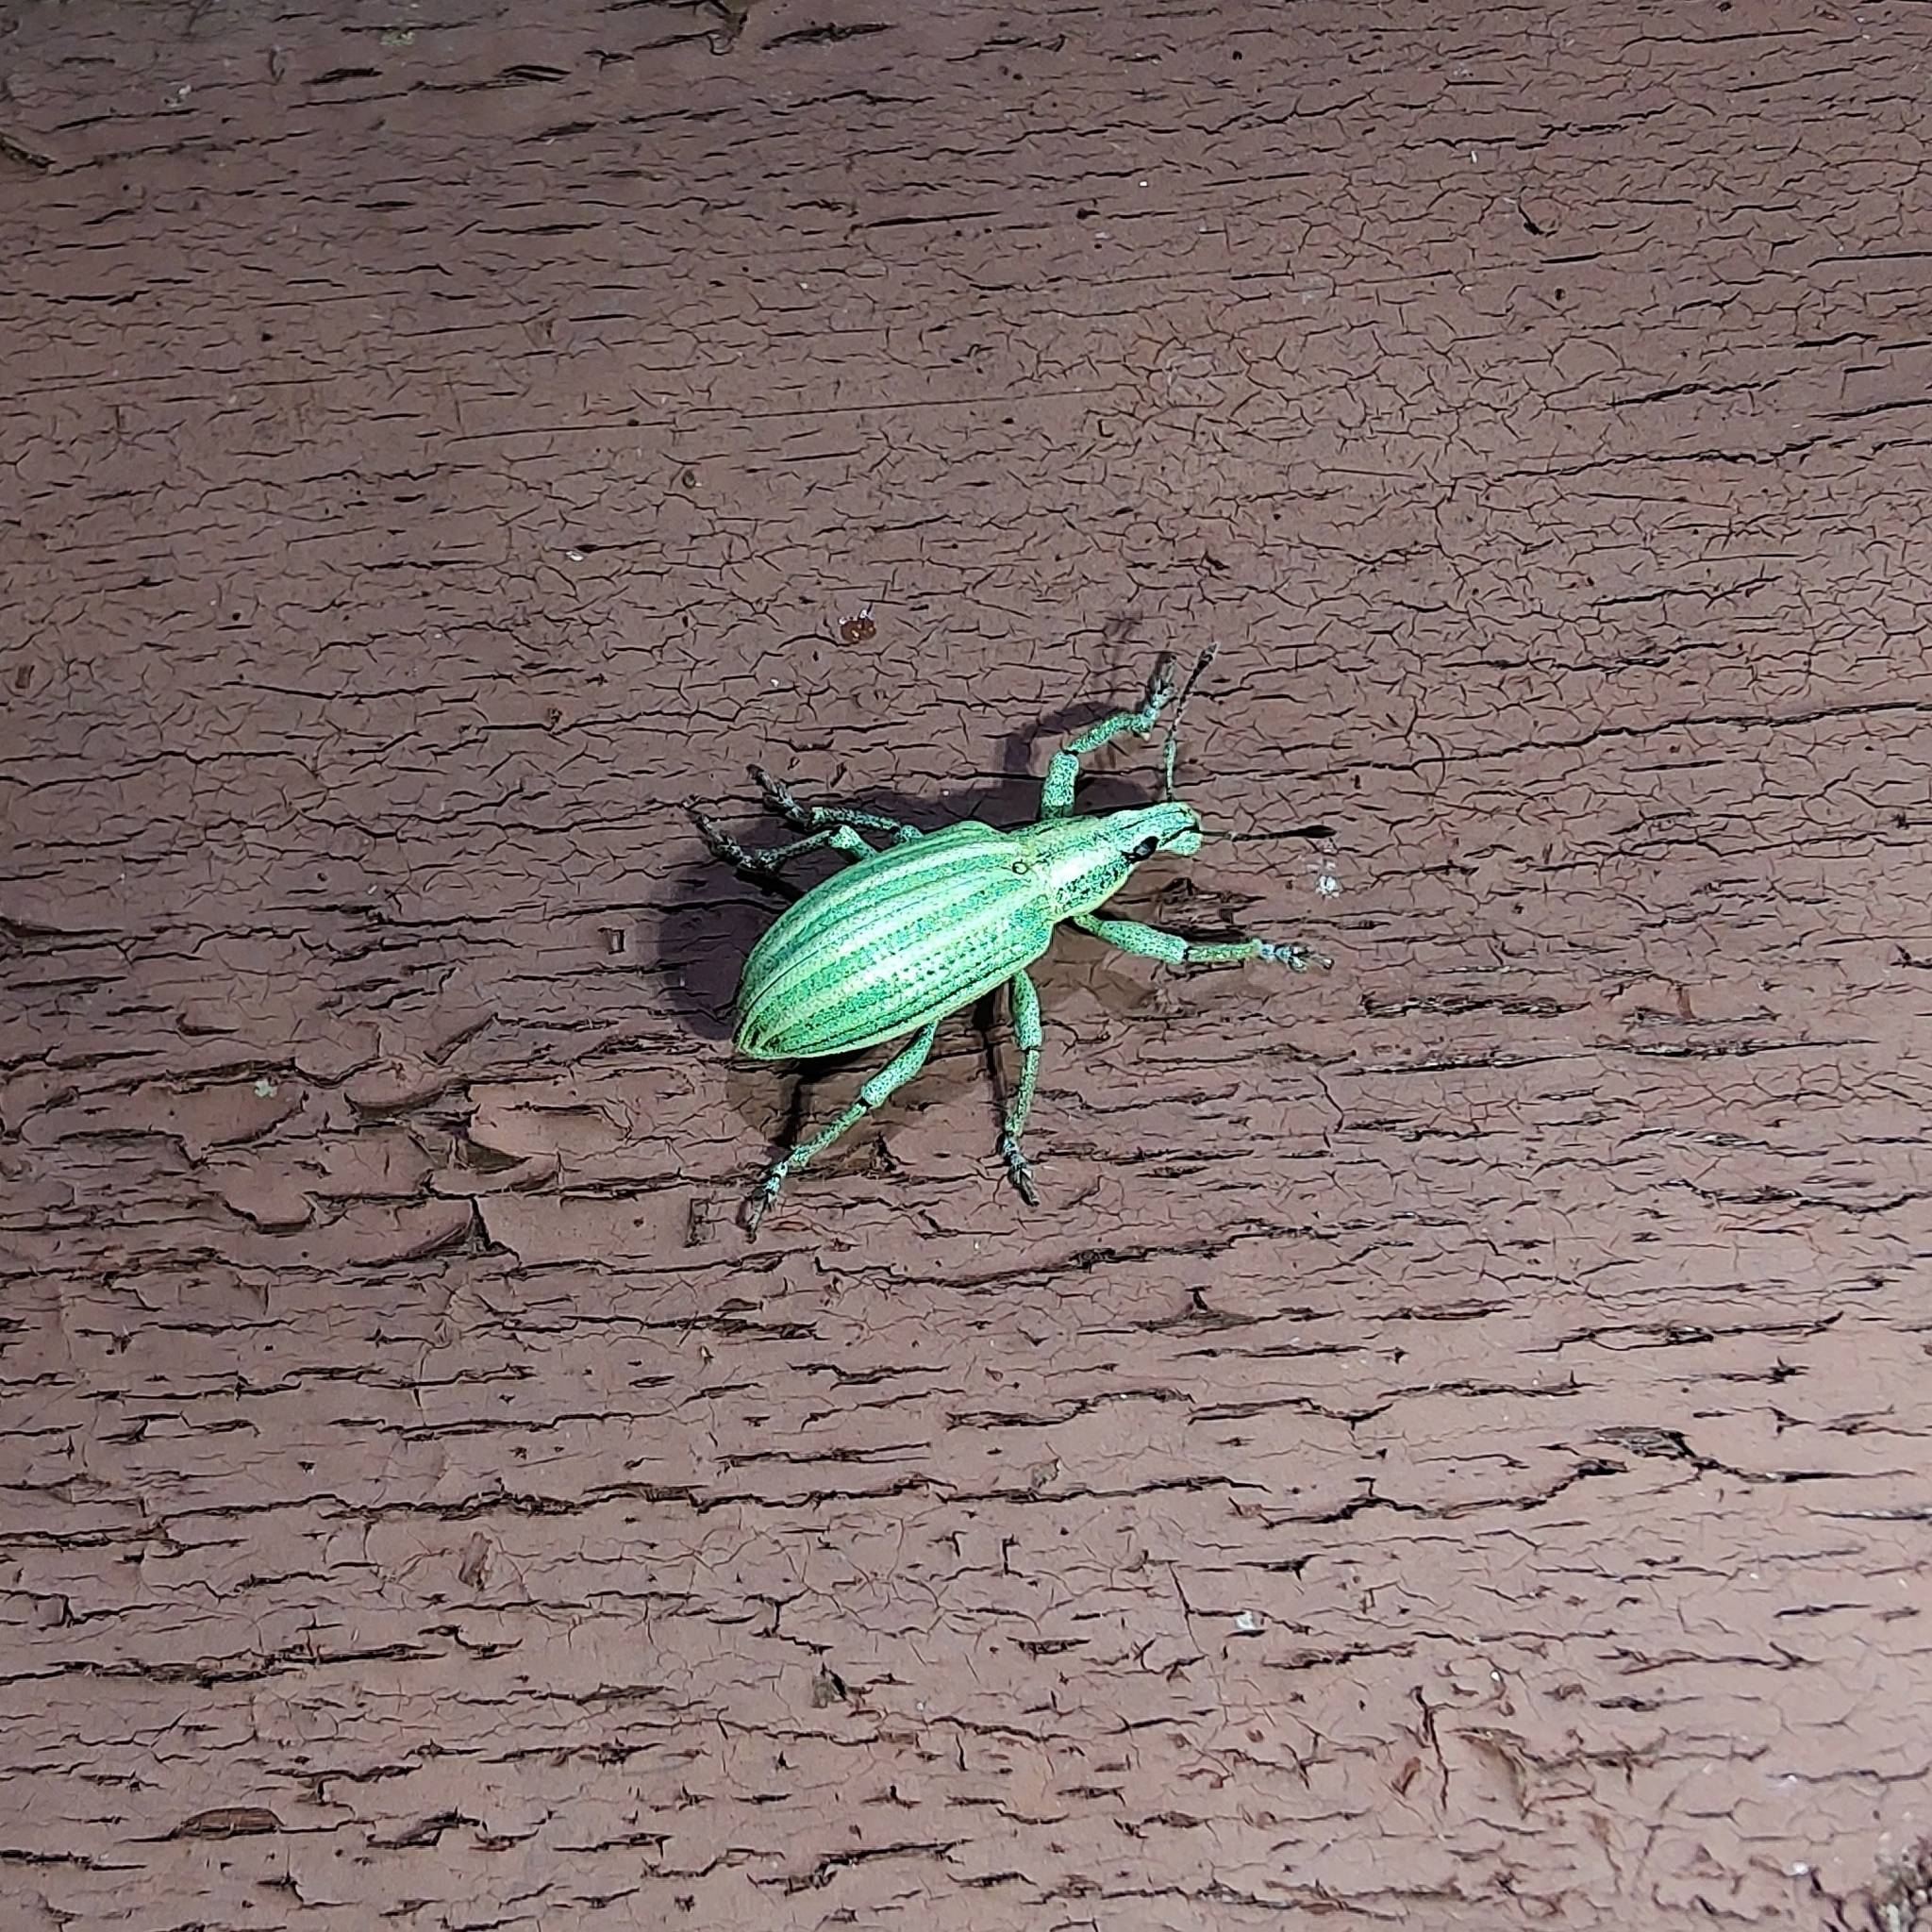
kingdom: Animalia
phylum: Arthropoda
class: Insecta
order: Coleoptera
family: Curculionidae
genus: Phaops
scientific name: Phaops thunbergii
